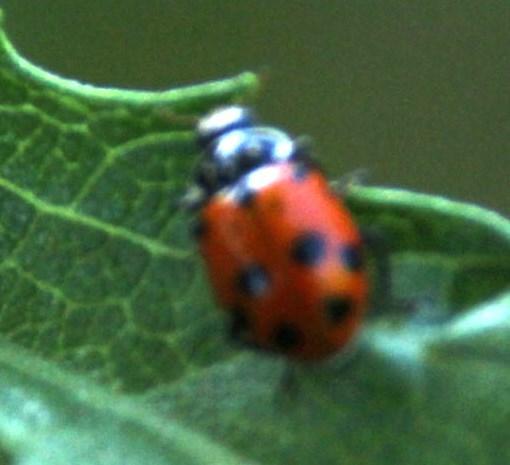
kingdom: Animalia
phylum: Arthropoda
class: Insecta
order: Coleoptera
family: Coccinellidae
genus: Hippodamia
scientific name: Hippodamia variegata
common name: Ladybird beetle
